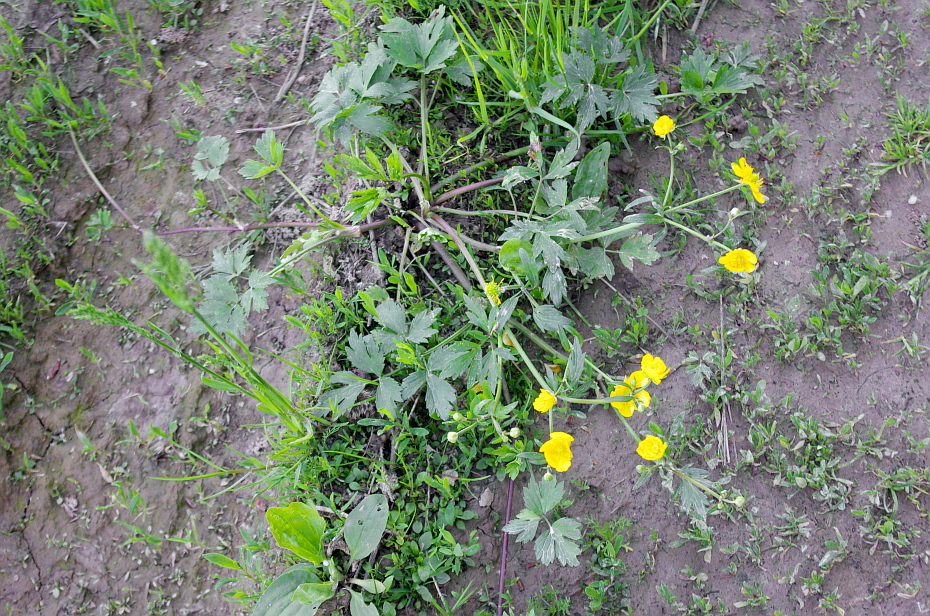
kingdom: Plantae
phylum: Tracheophyta
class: Magnoliopsida
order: Ranunculales
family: Ranunculaceae
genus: Ranunculus
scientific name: Ranunculus repens
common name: Creeping buttercup
